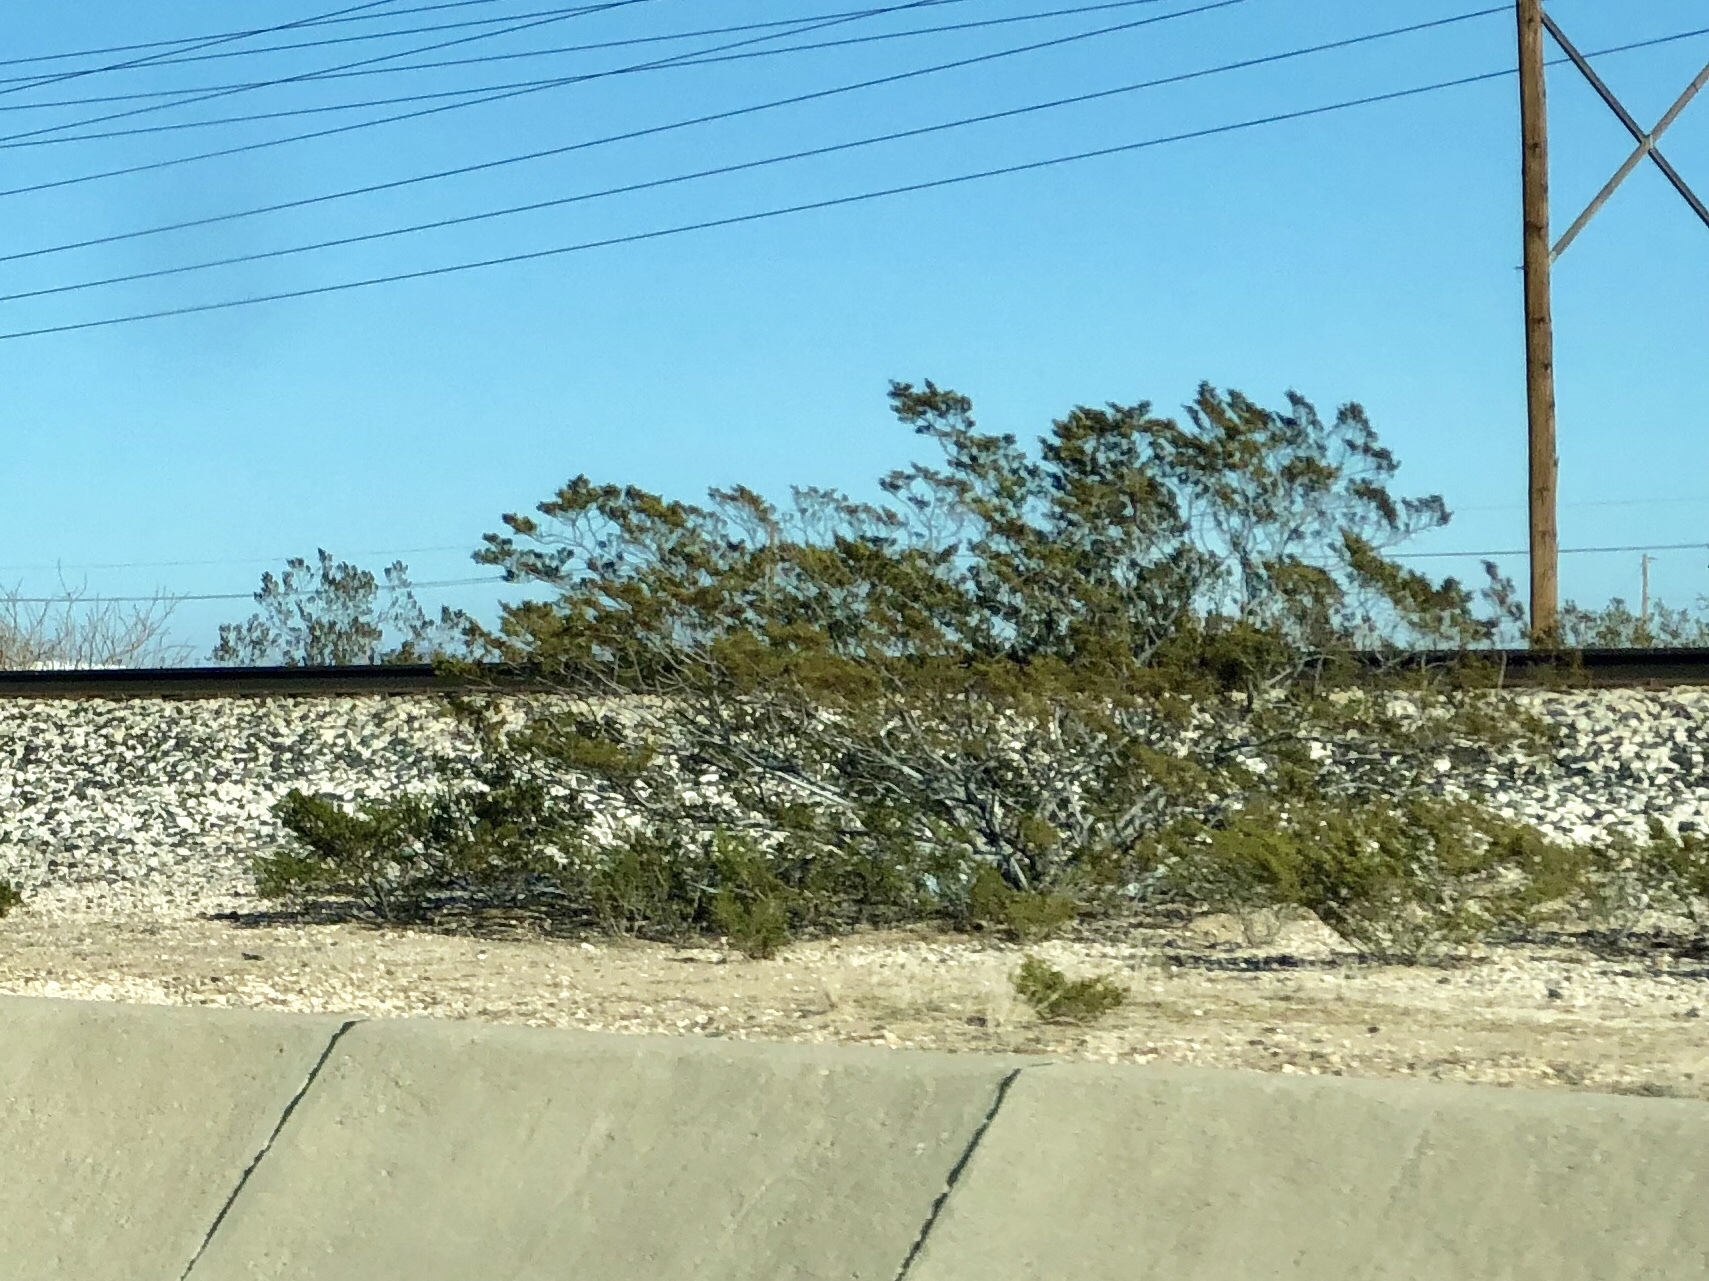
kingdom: Plantae
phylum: Tracheophyta
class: Magnoliopsida
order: Zygophyllales
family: Zygophyllaceae
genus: Larrea
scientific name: Larrea tridentata
